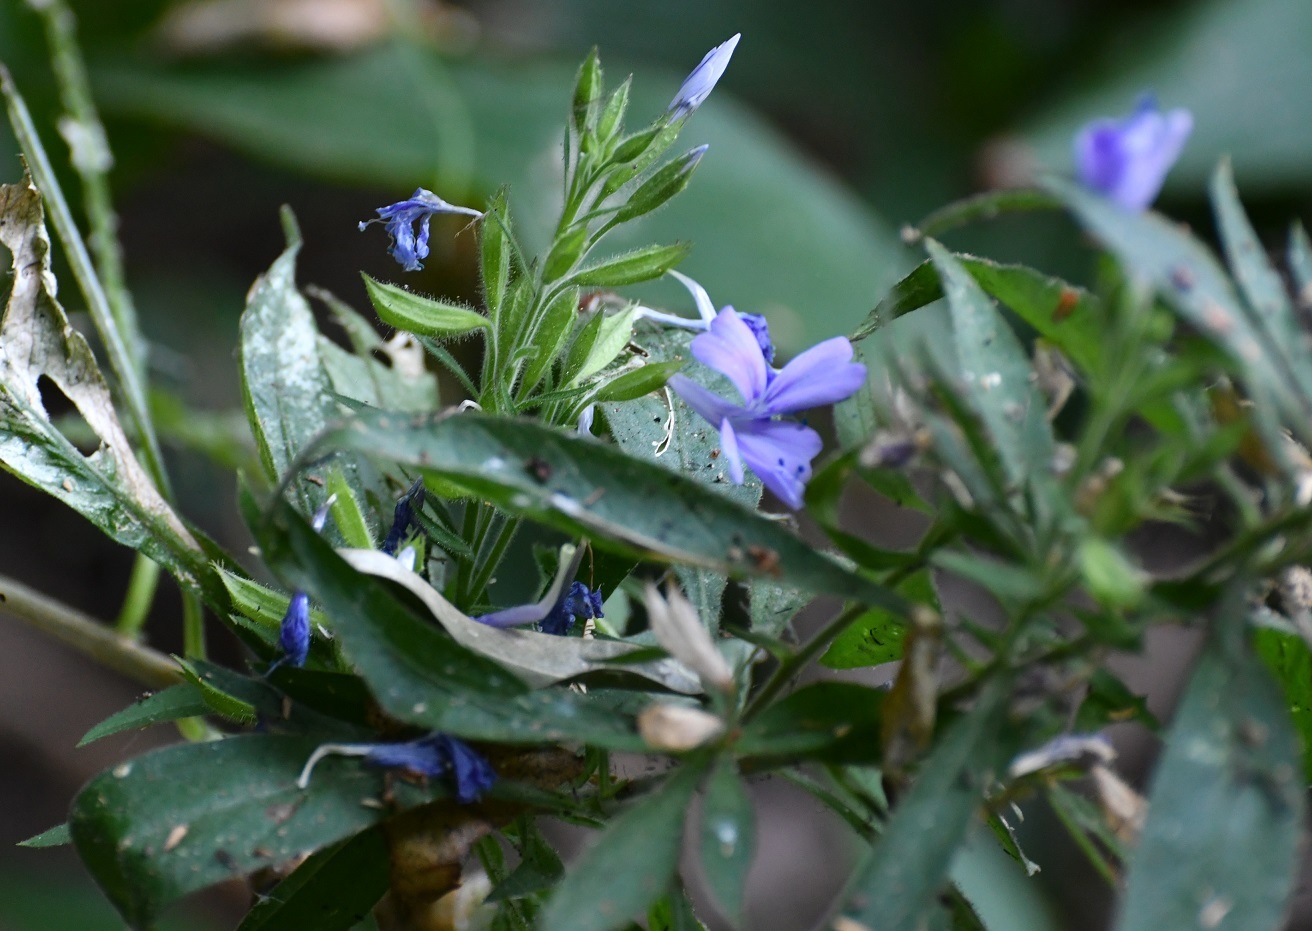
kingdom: Plantae
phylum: Tracheophyta
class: Magnoliopsida
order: Ericales
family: Polemoniaceae
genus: Bonplandia
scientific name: Bonplandia geminiflora
